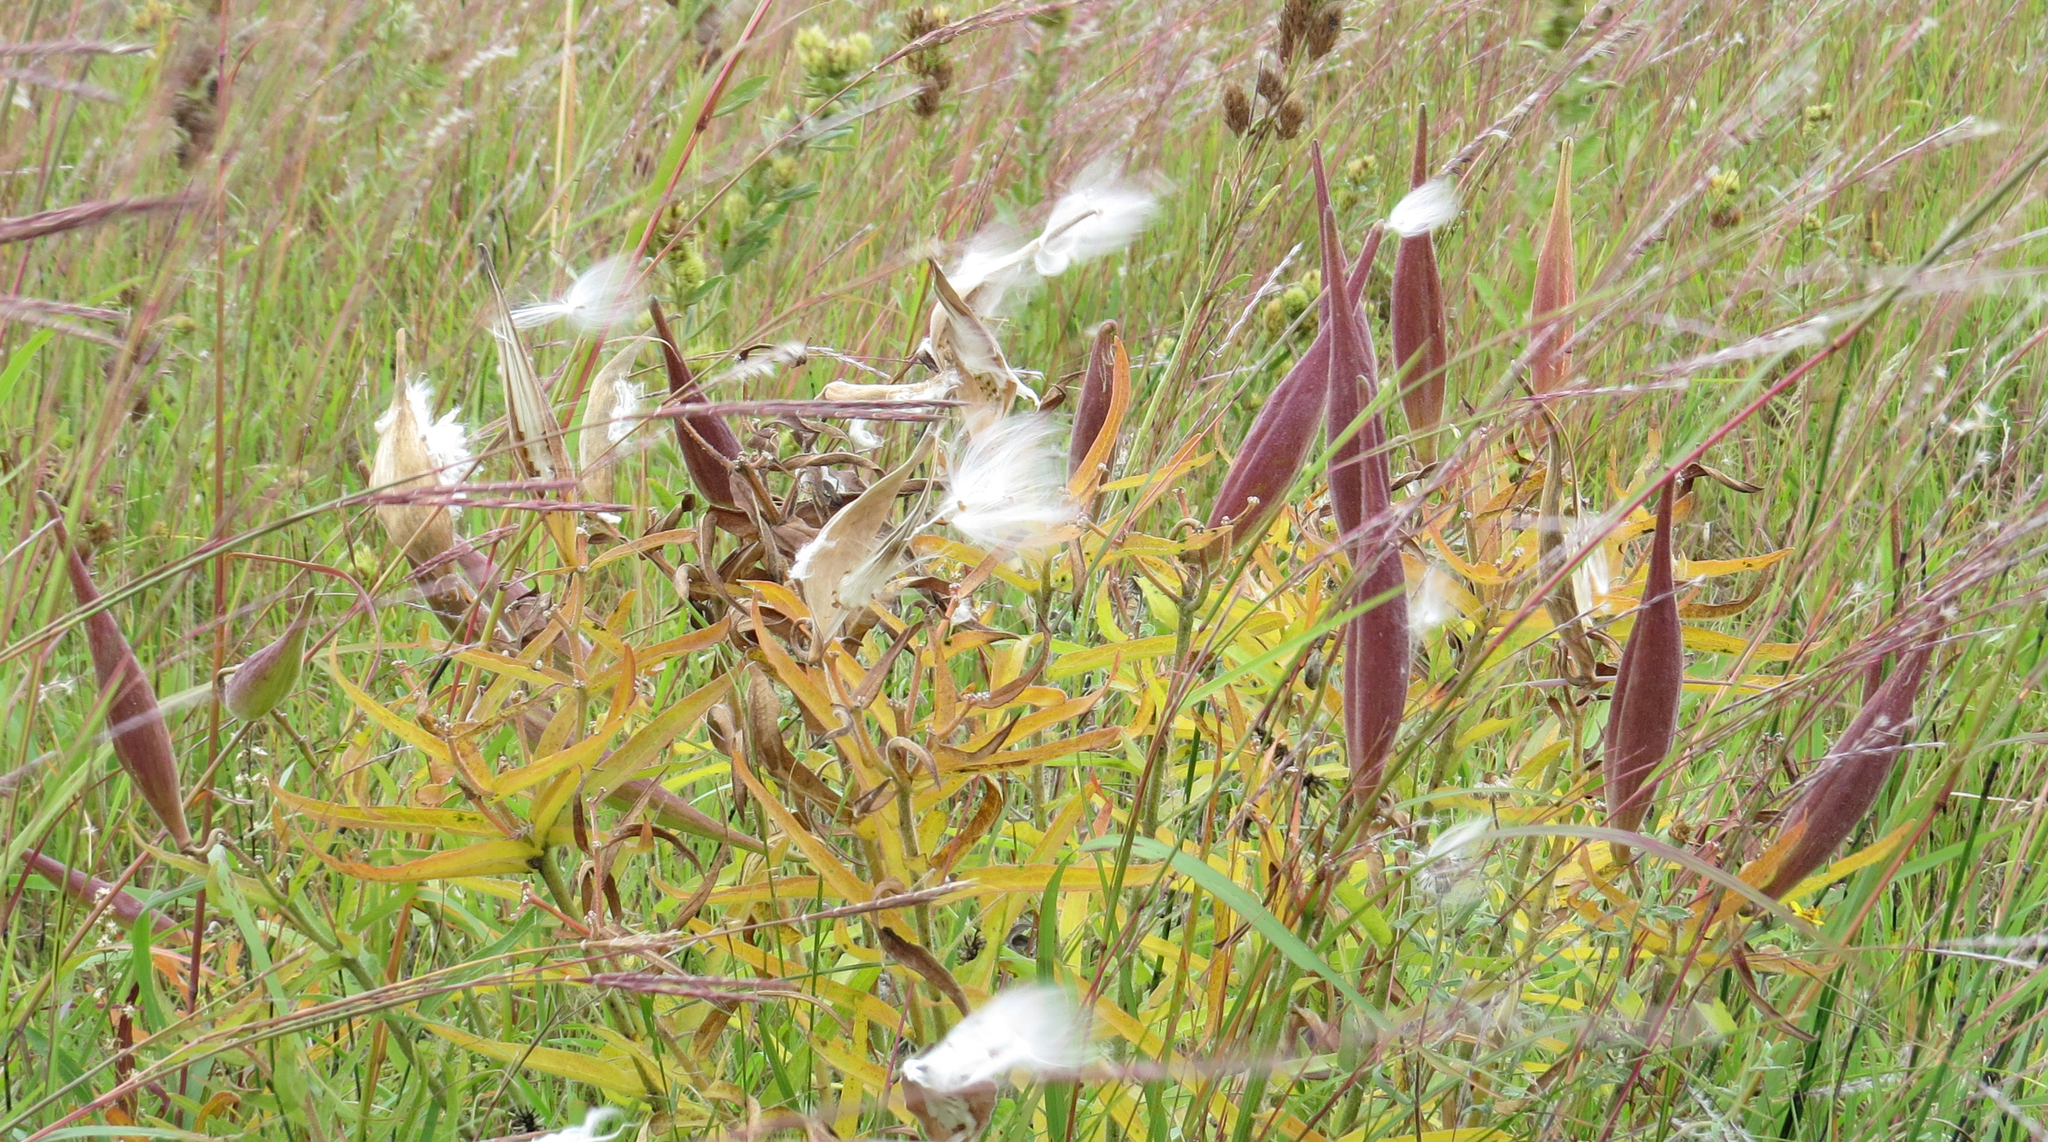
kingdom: Plantae
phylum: Tracheophyta
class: Magnoliopsida
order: Gentianales
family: Apocynaceae
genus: Asclepias
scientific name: Asclepias tuberosa
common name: Butterfly milkweed
